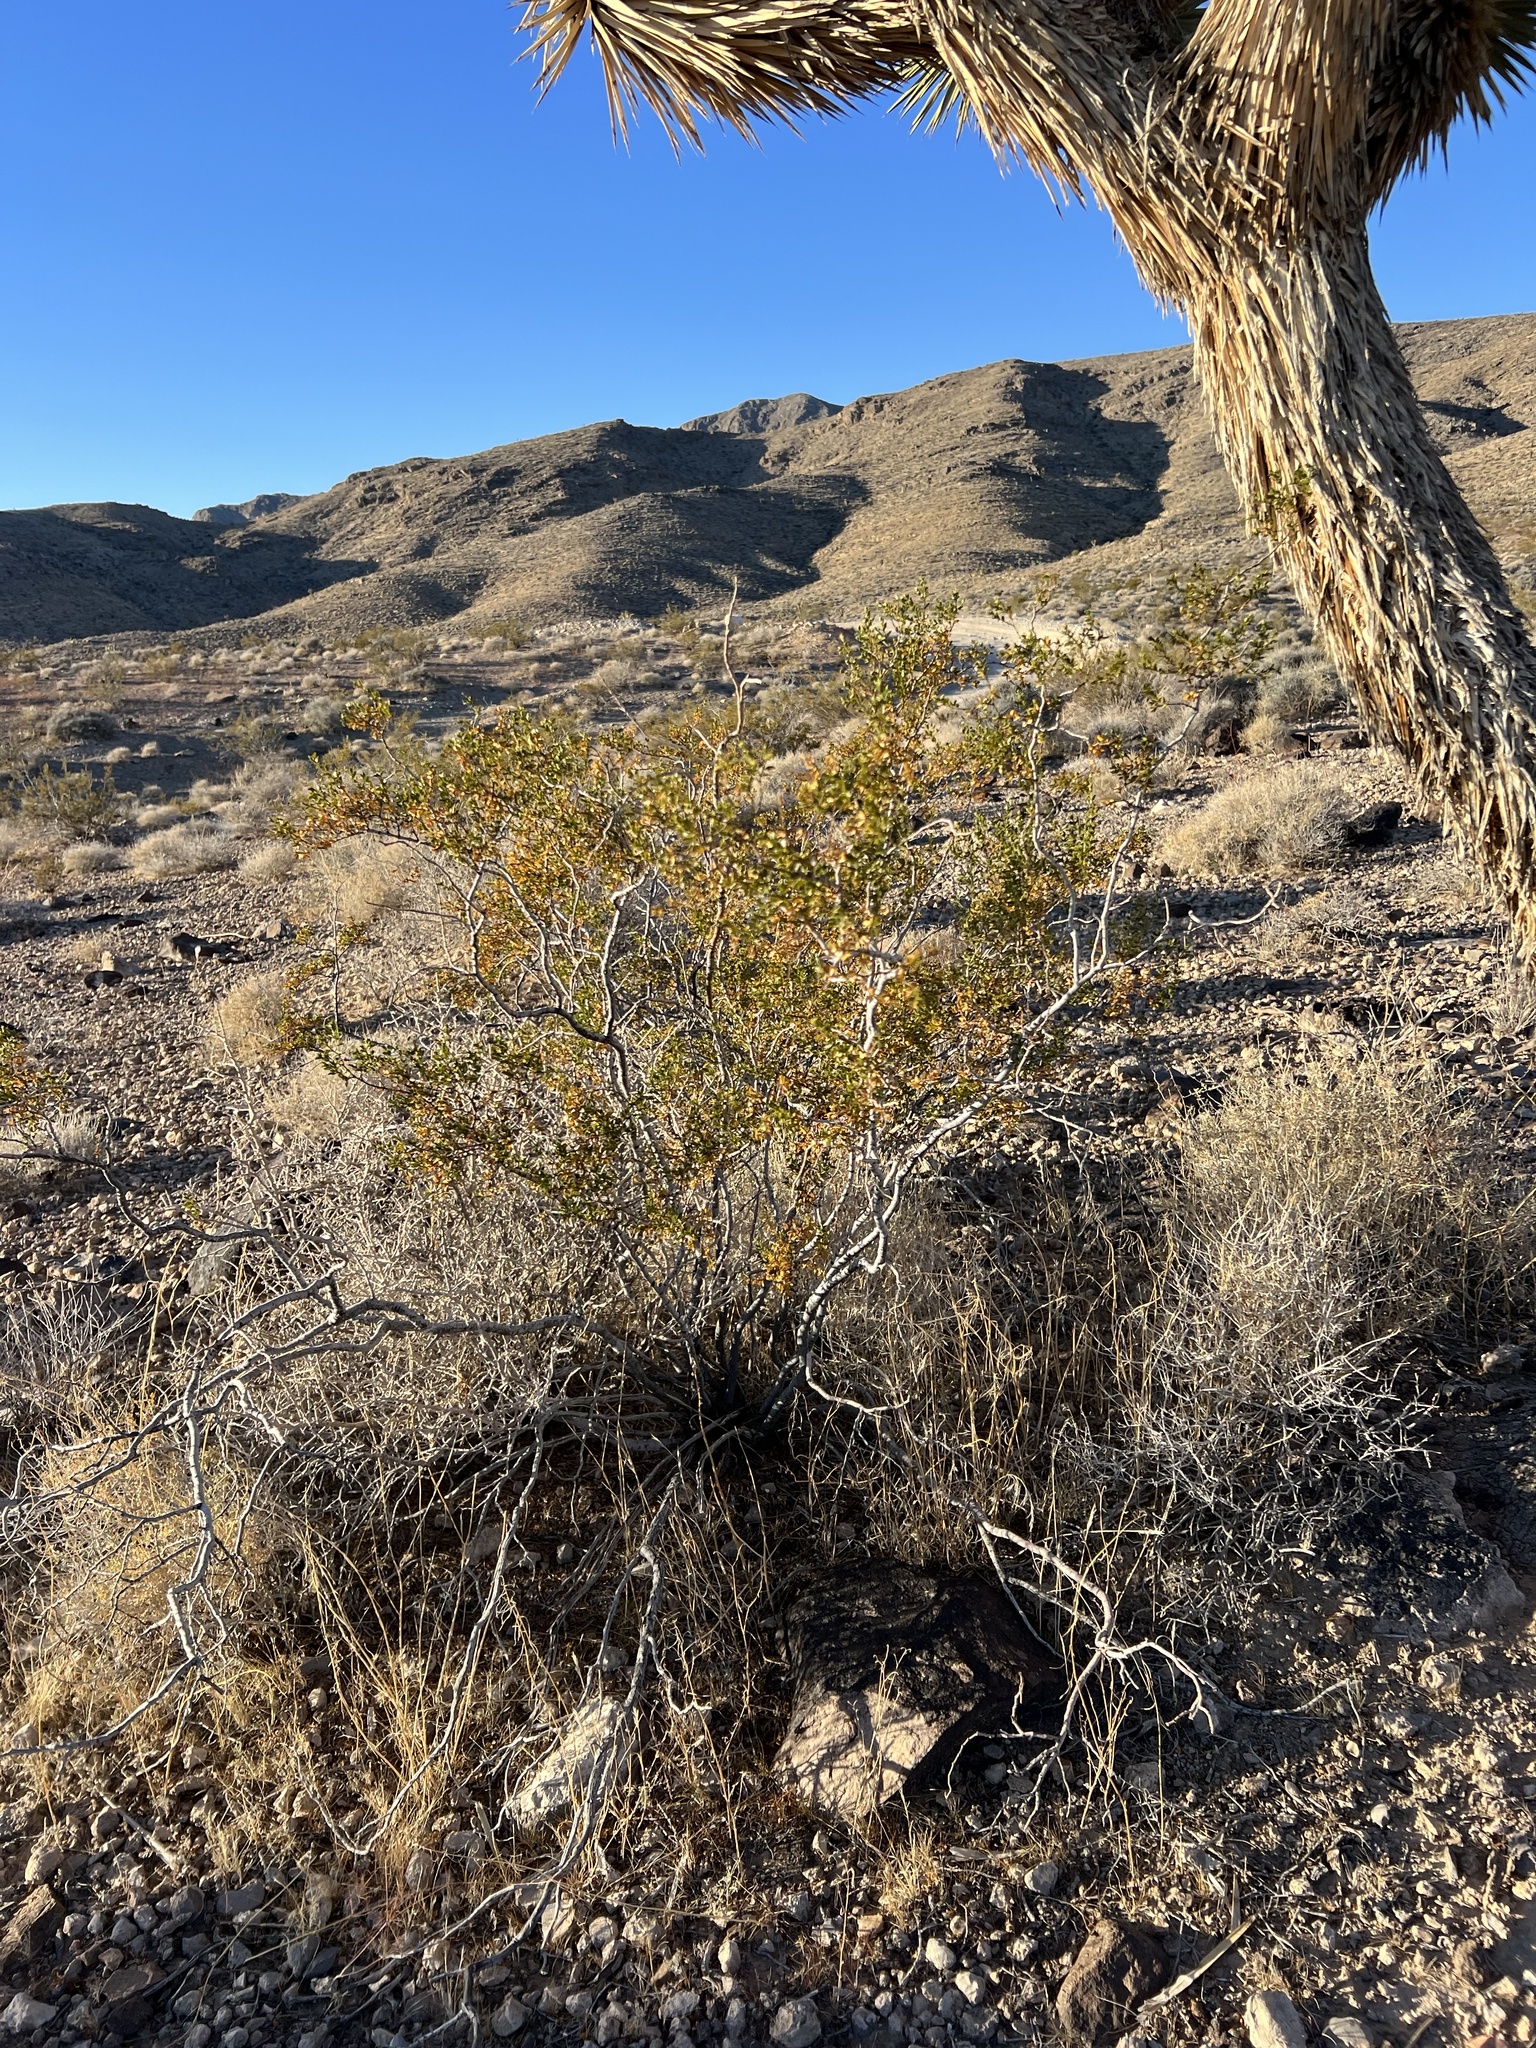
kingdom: Plantae
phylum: Tracheophyta
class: Magnoliopsida
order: Zygophyllales
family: Zygophyllaceae
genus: Larrea
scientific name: Larrea tridentata
